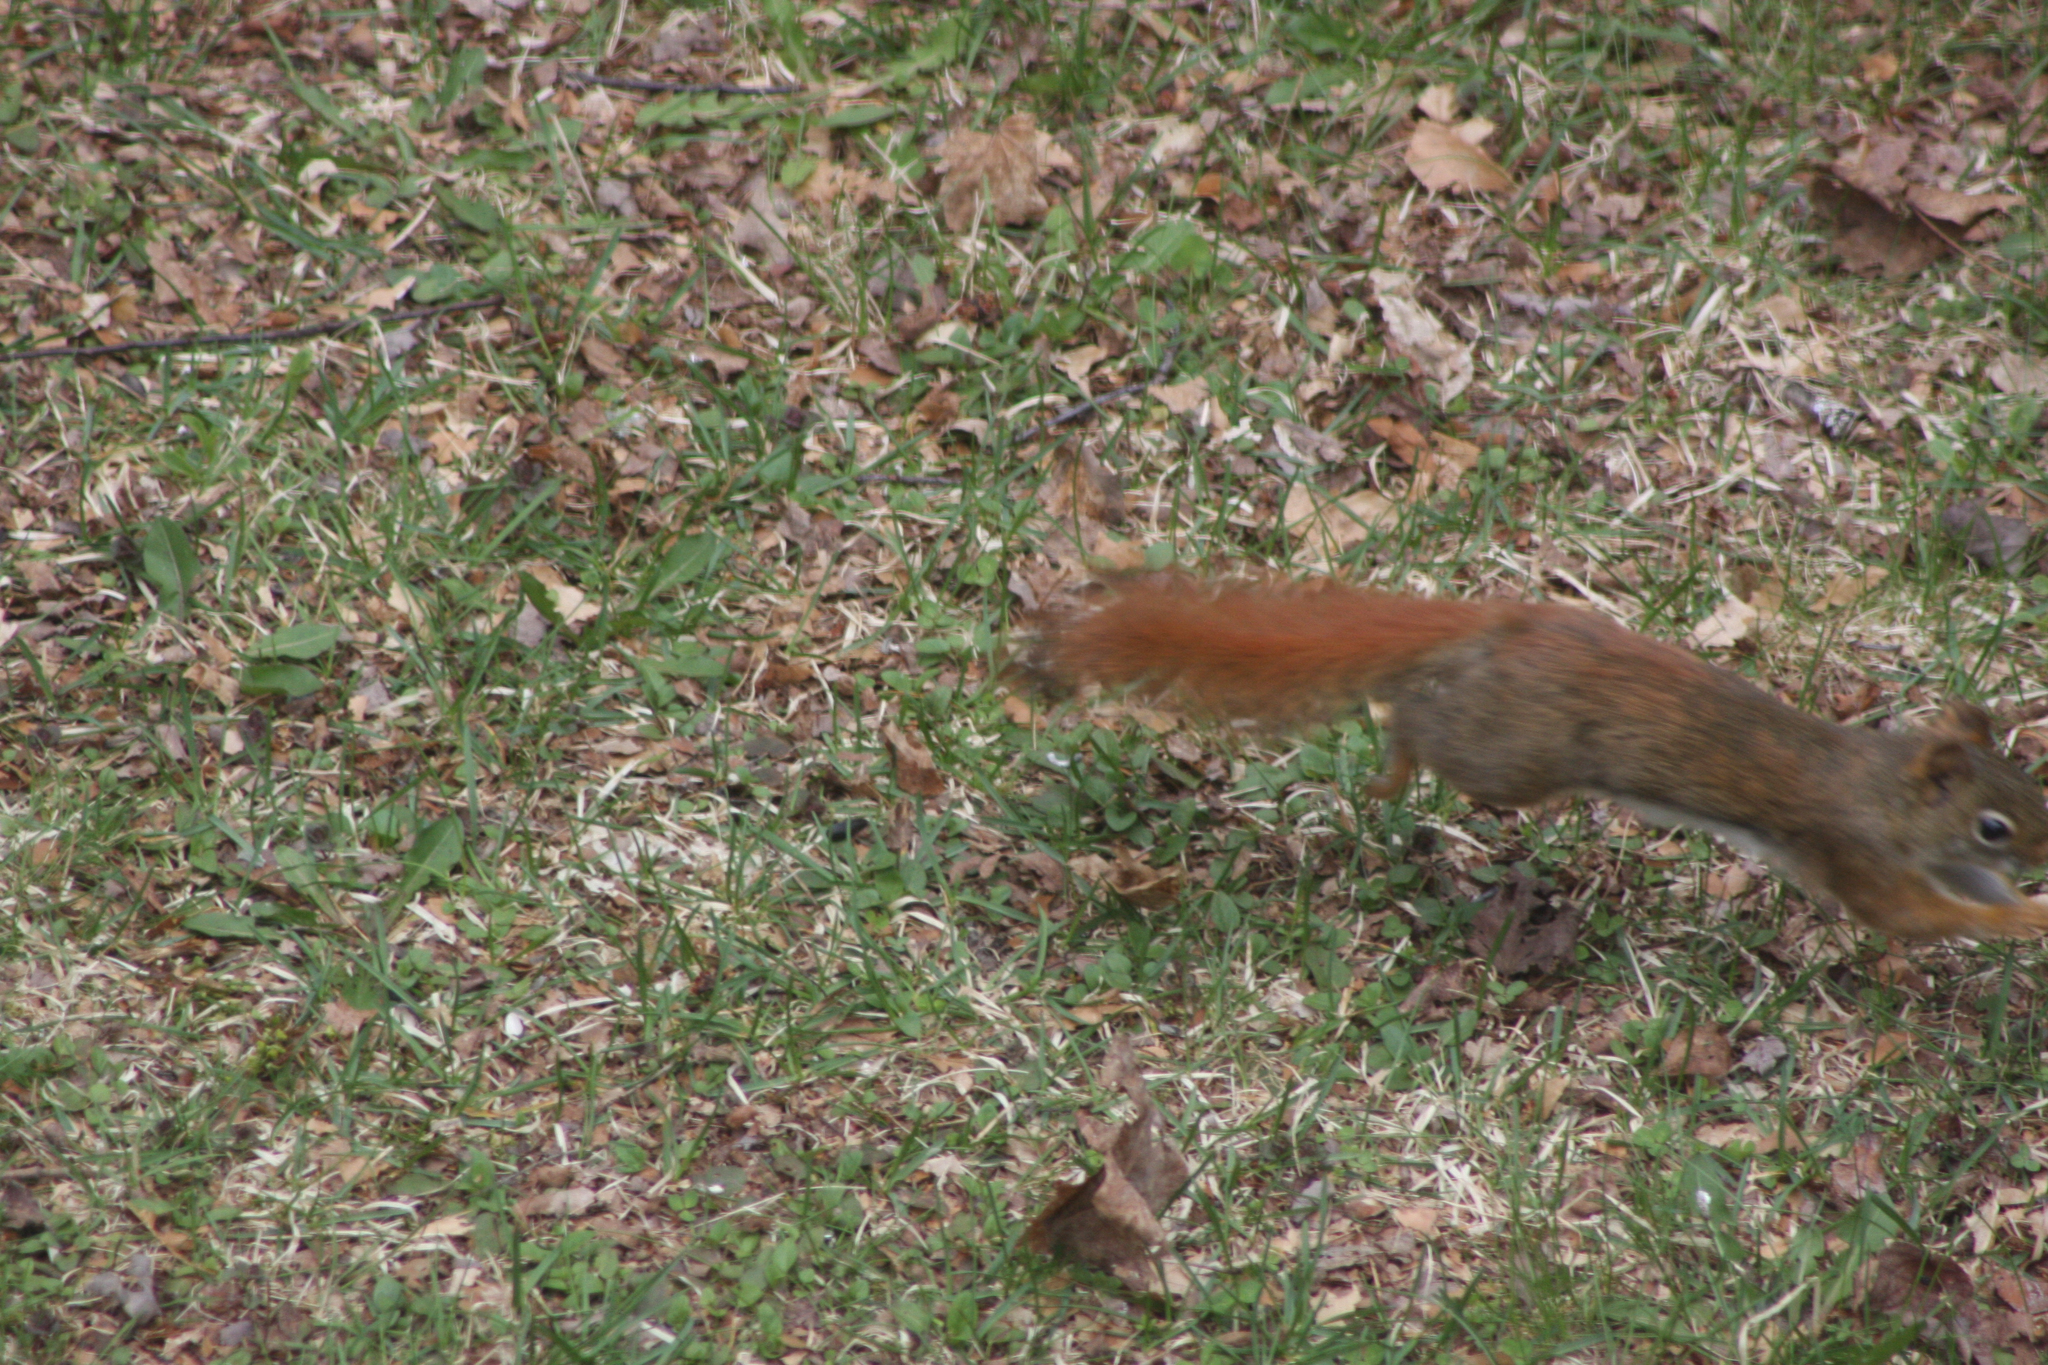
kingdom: Animalia
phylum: Chordata
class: Mammalia
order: Rodentia
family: Sciuridae
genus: Tamiasciurus
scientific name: Tamiasciurus hudsonicus
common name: Red squirrel
